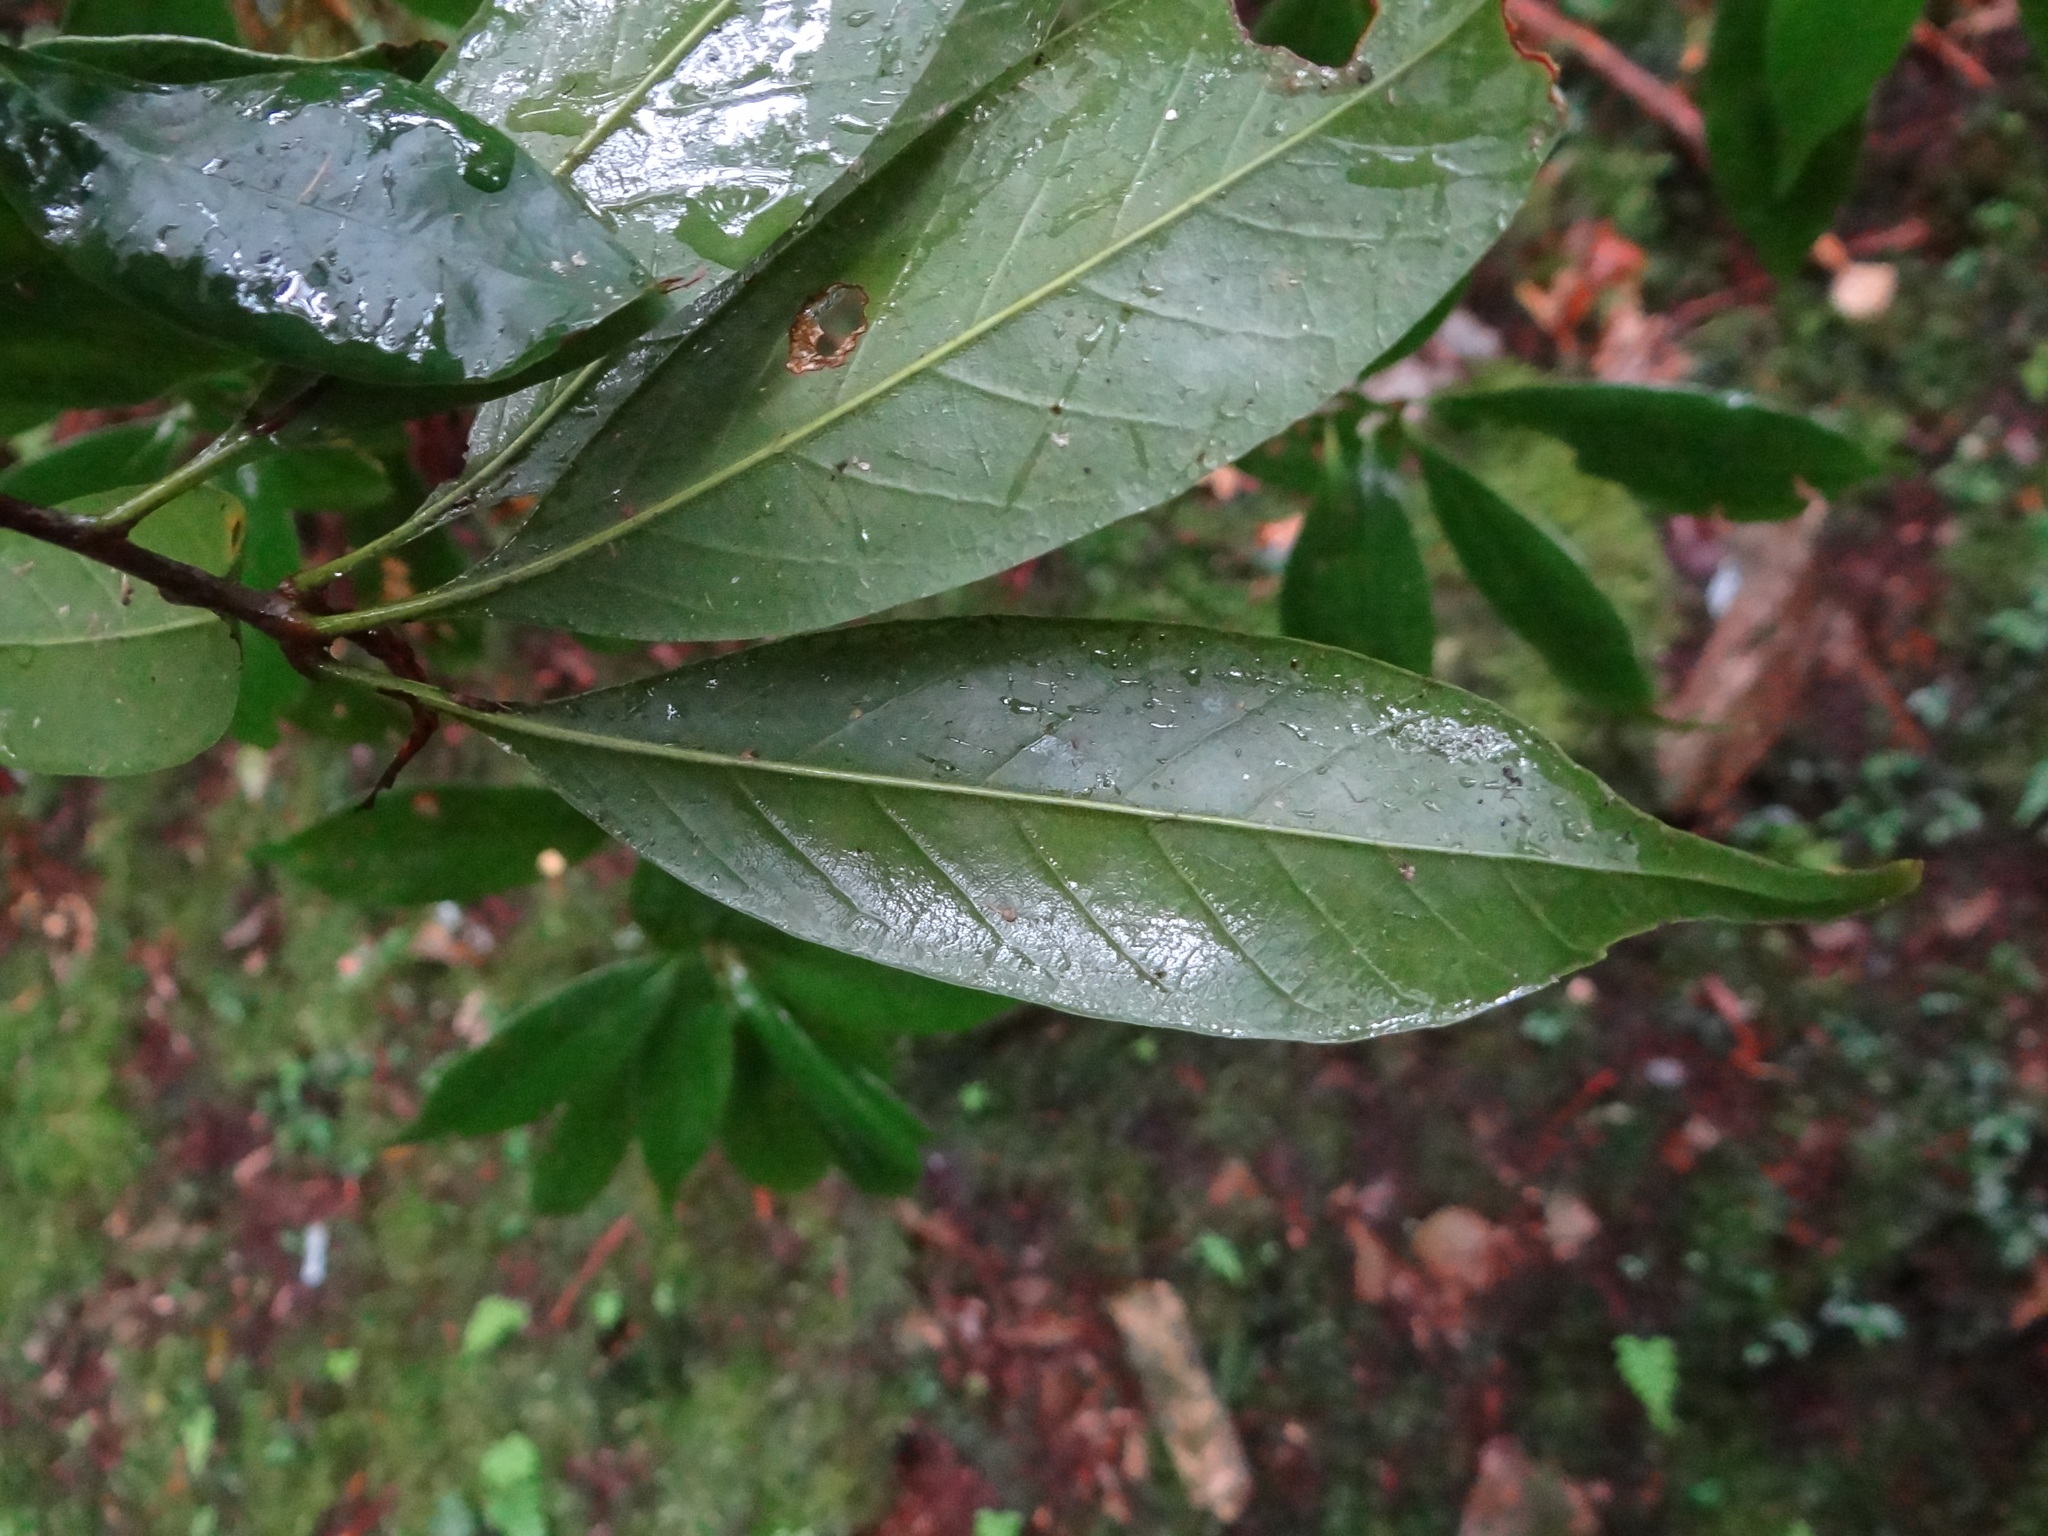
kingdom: Plantae
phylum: Tracheophyta
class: Magnoliopsida
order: Fagales
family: Fagaceae
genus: Quercus
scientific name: Quercus sessilifolia
